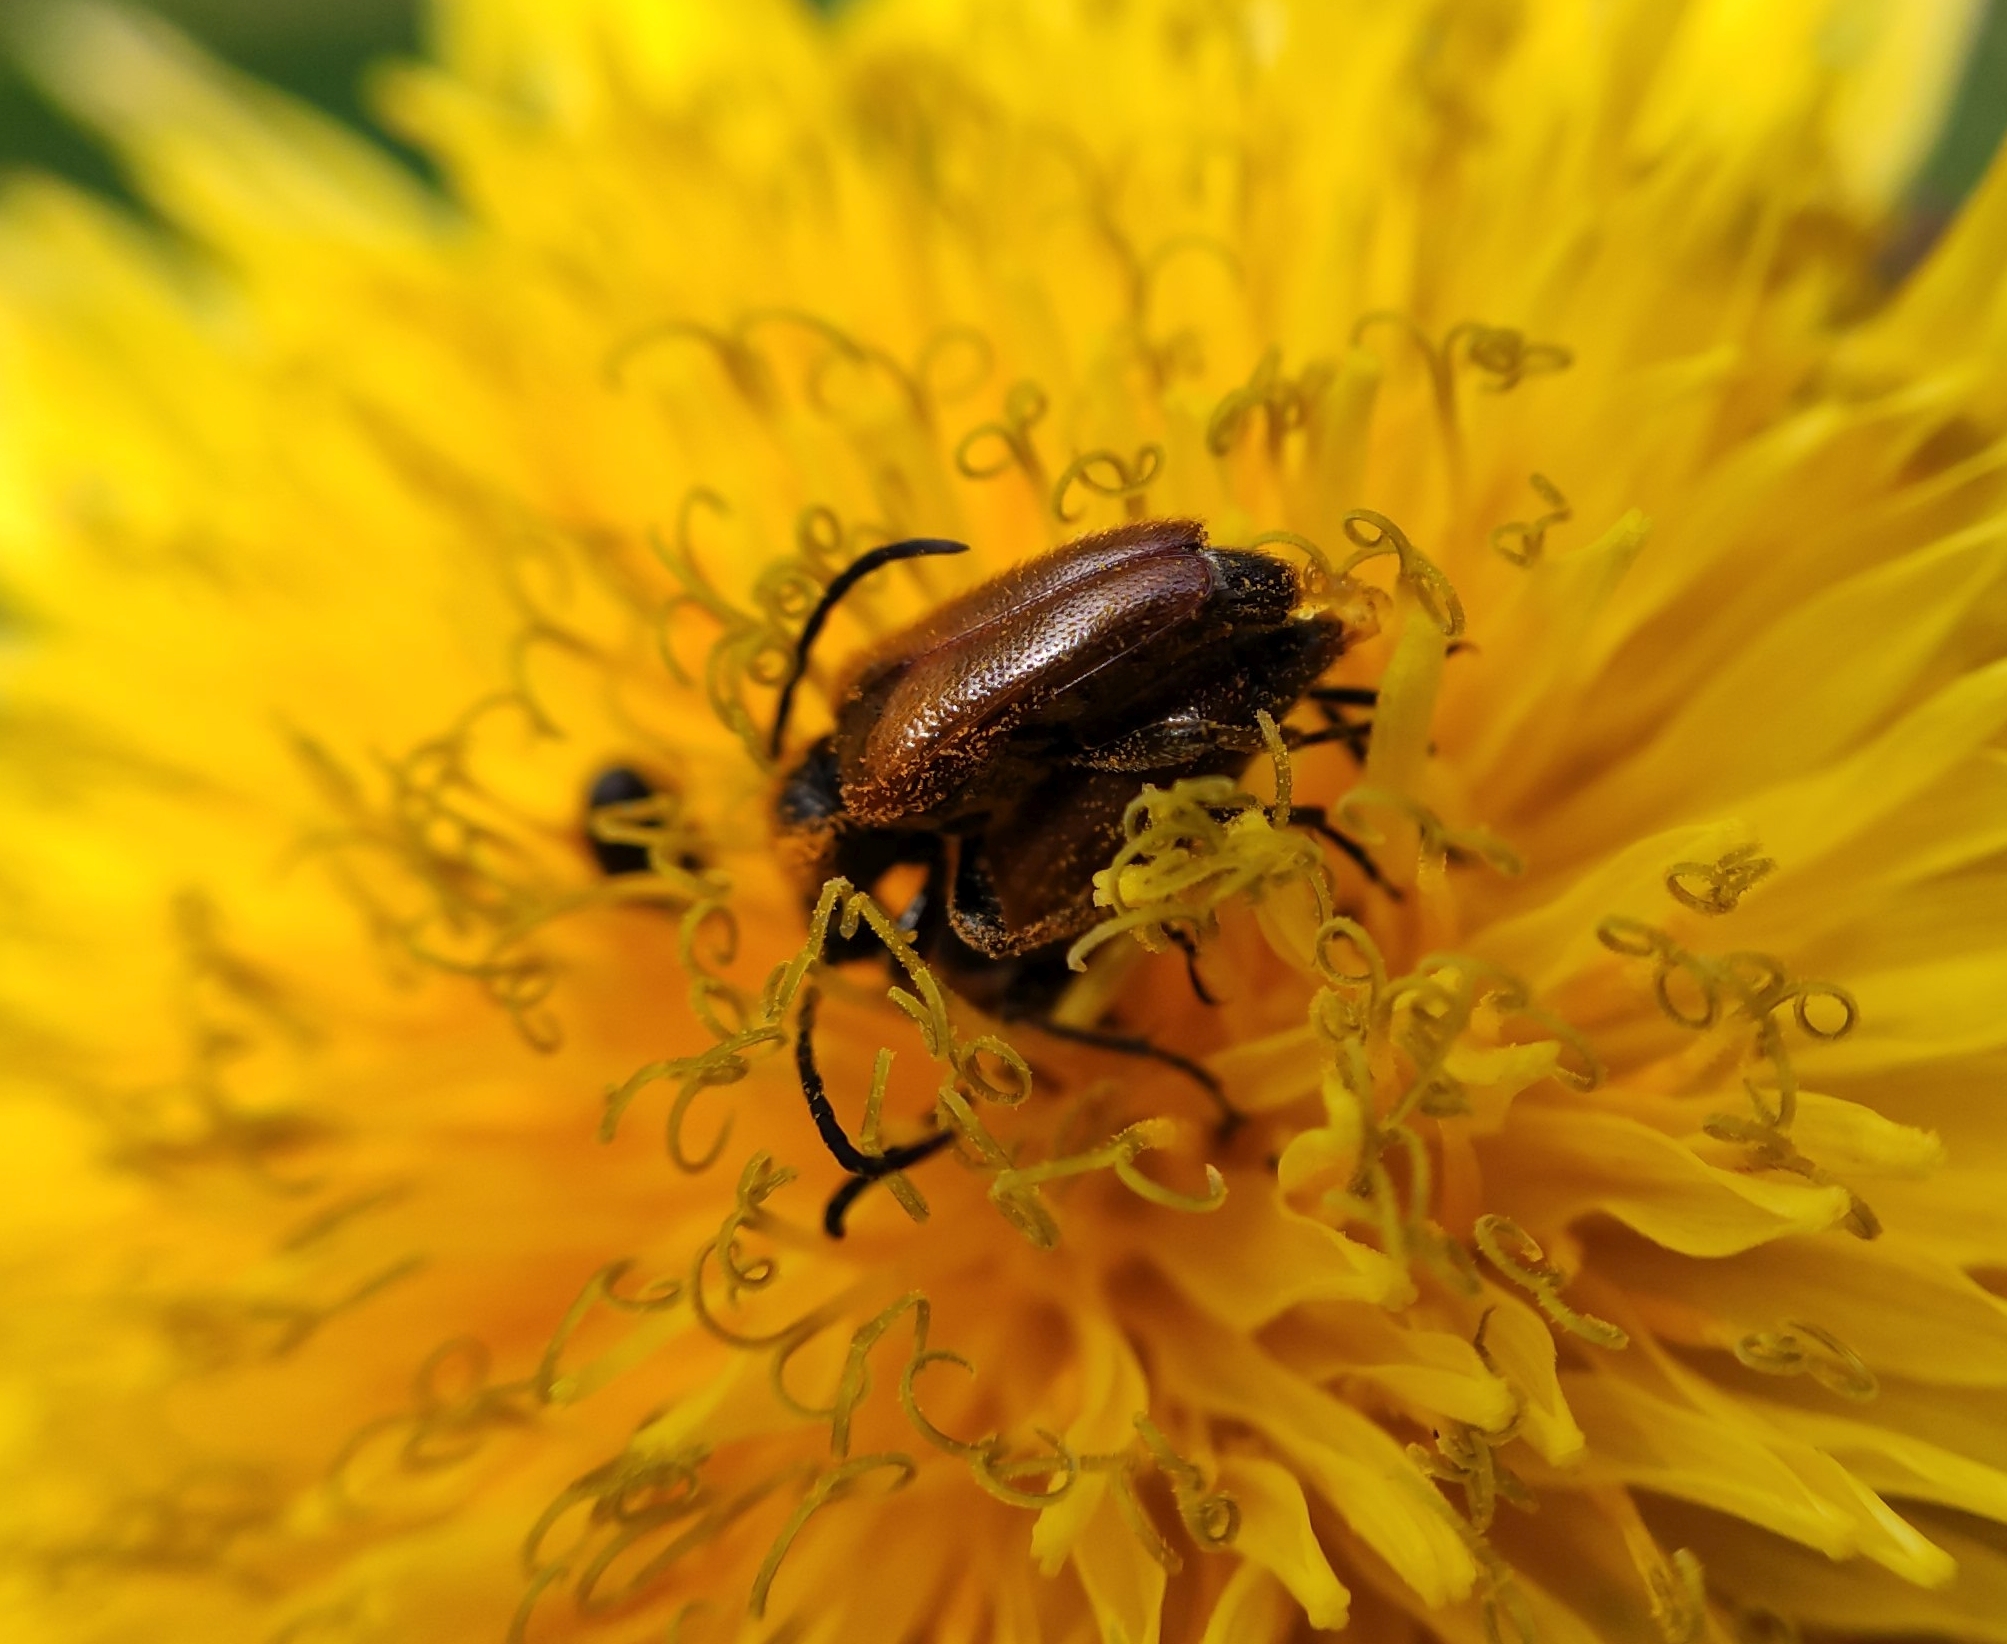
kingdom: Animalia
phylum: Arthropoda
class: Insecta
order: Coleoptera
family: Cerambycidae
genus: Pseudovadonia
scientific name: Pseudovadonia livida
